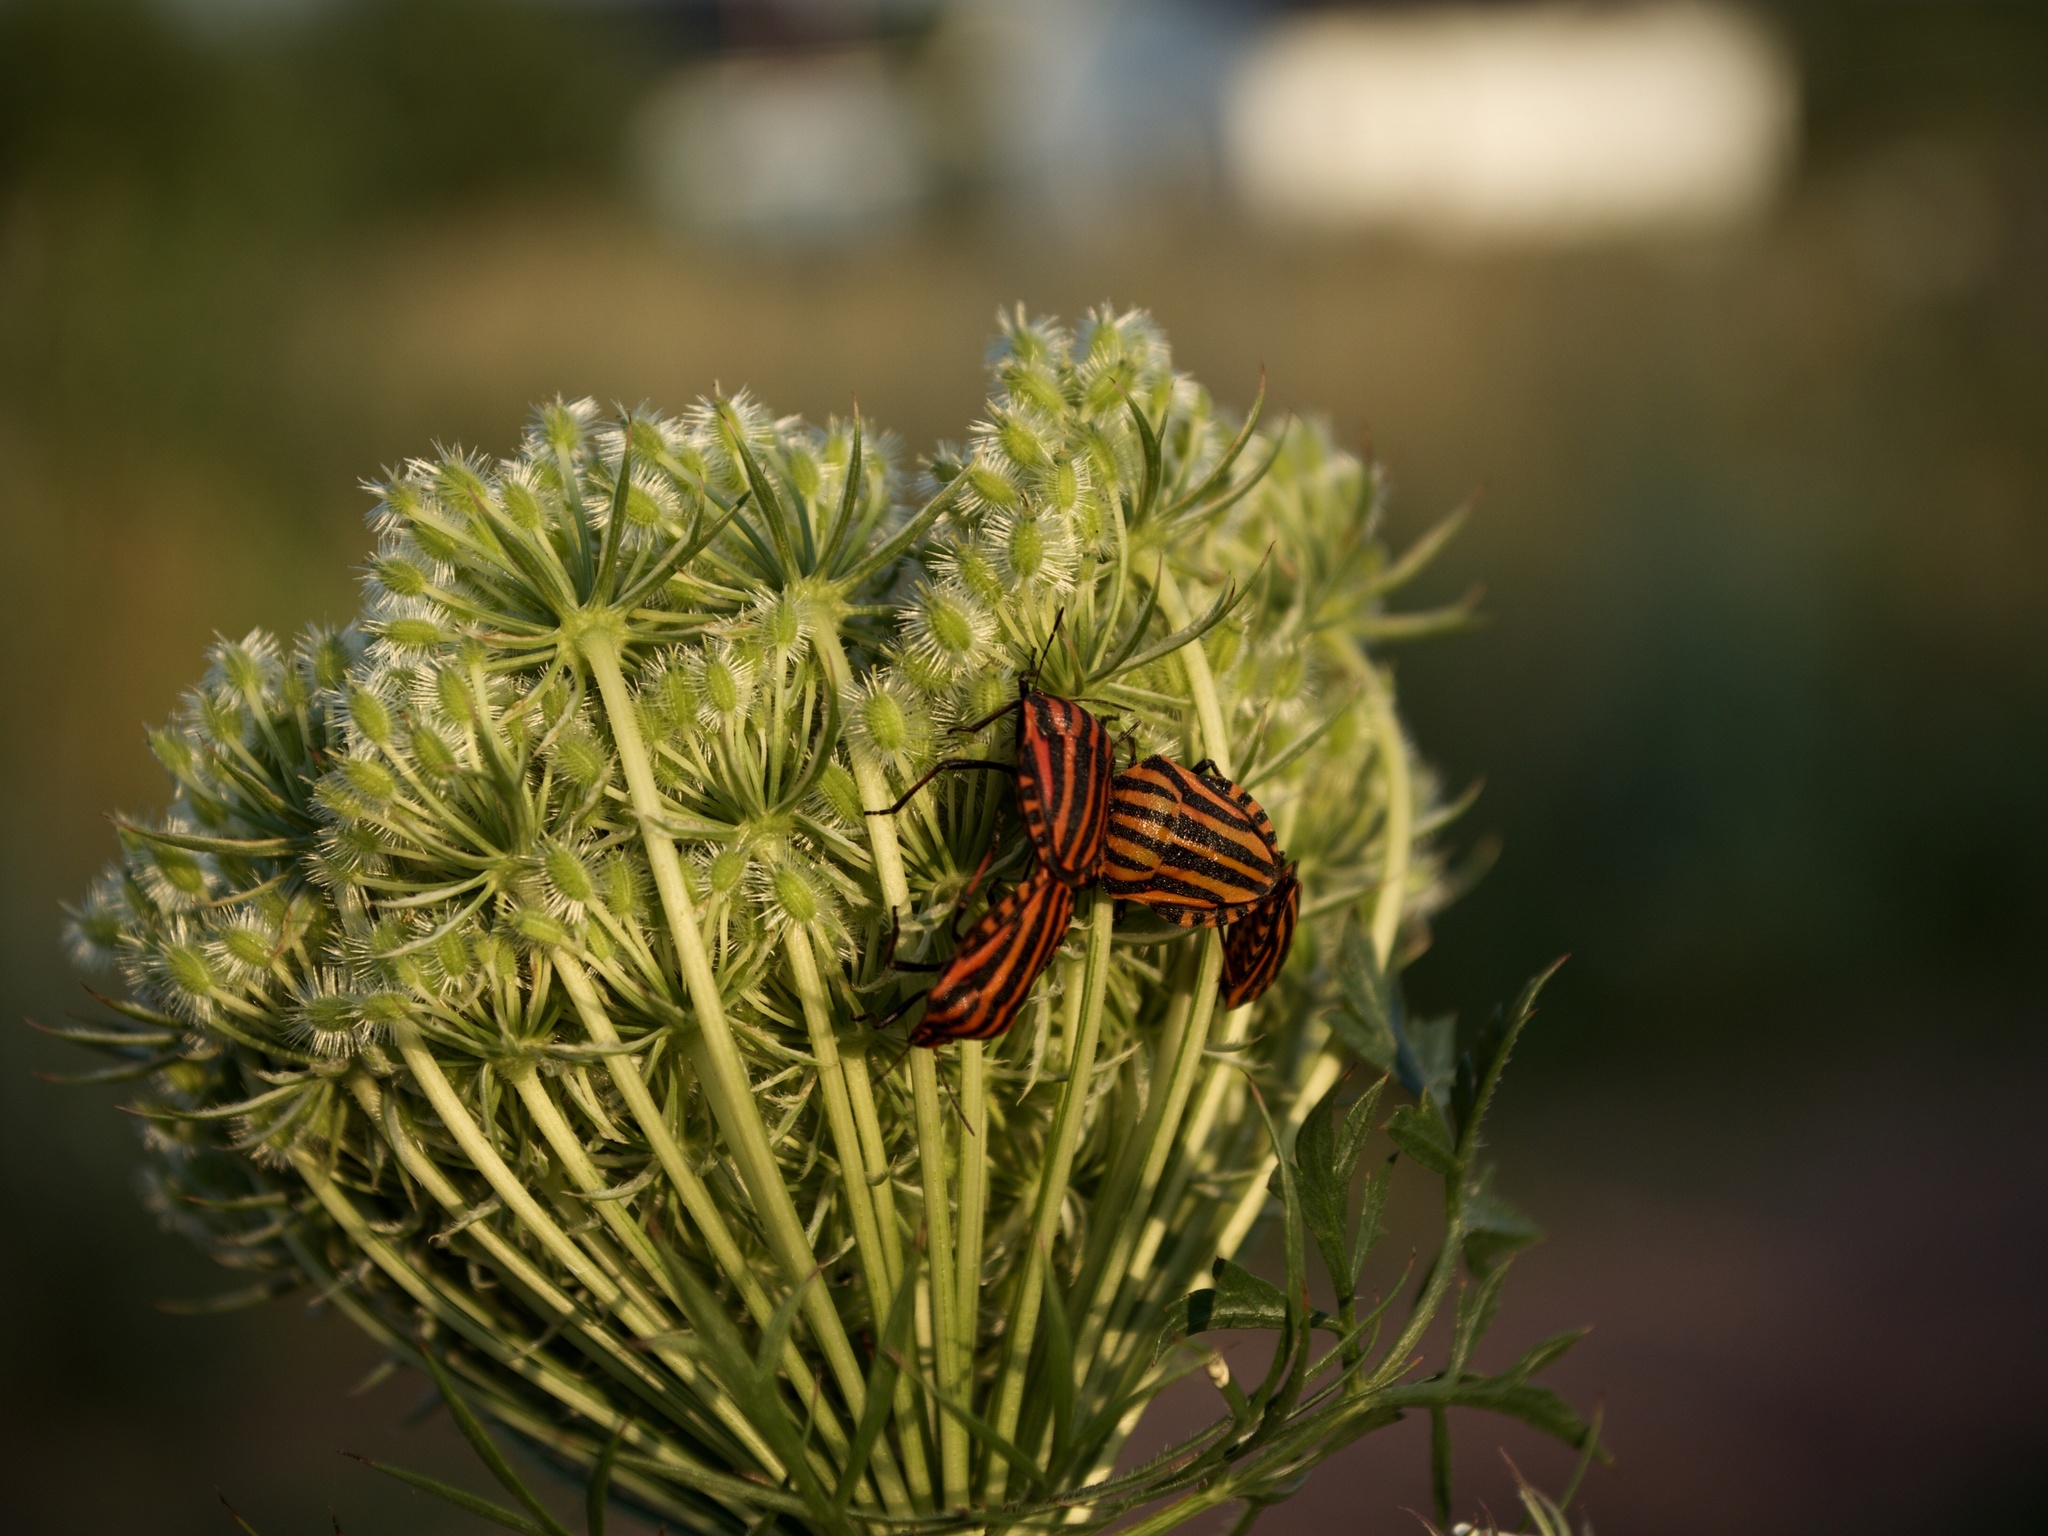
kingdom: Animalia
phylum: Arthropoda
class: Insecta
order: Hemiptera
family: Pentatomidae
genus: Graphosoma
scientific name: Graphosoma italicum
